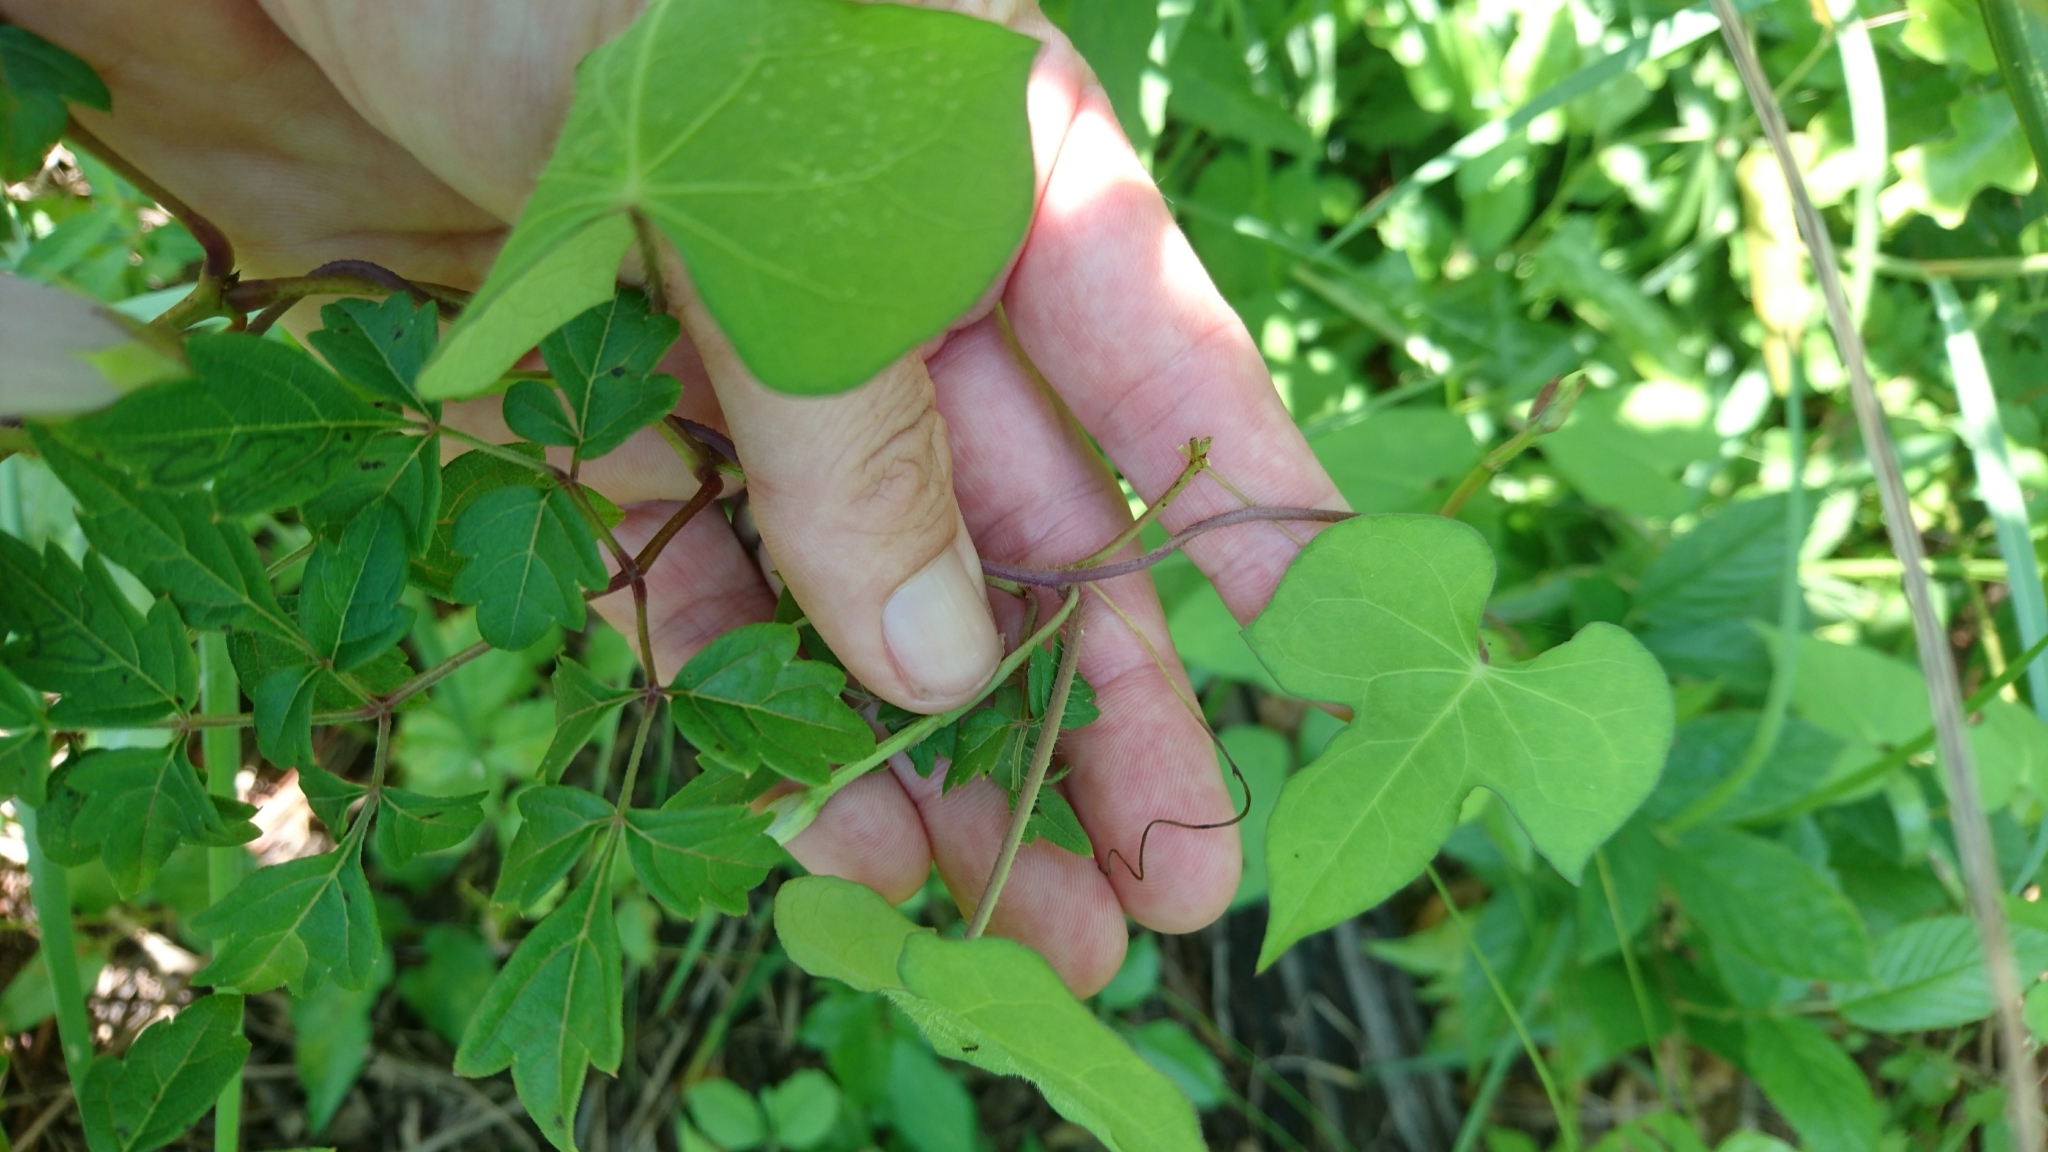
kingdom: Plantae
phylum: Tracheophyta
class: Magnoliopsida
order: Solanales
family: Convolvulaceae
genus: Ipomoea
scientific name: Ipomoea cordatotriloba
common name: Cotton morning glory
